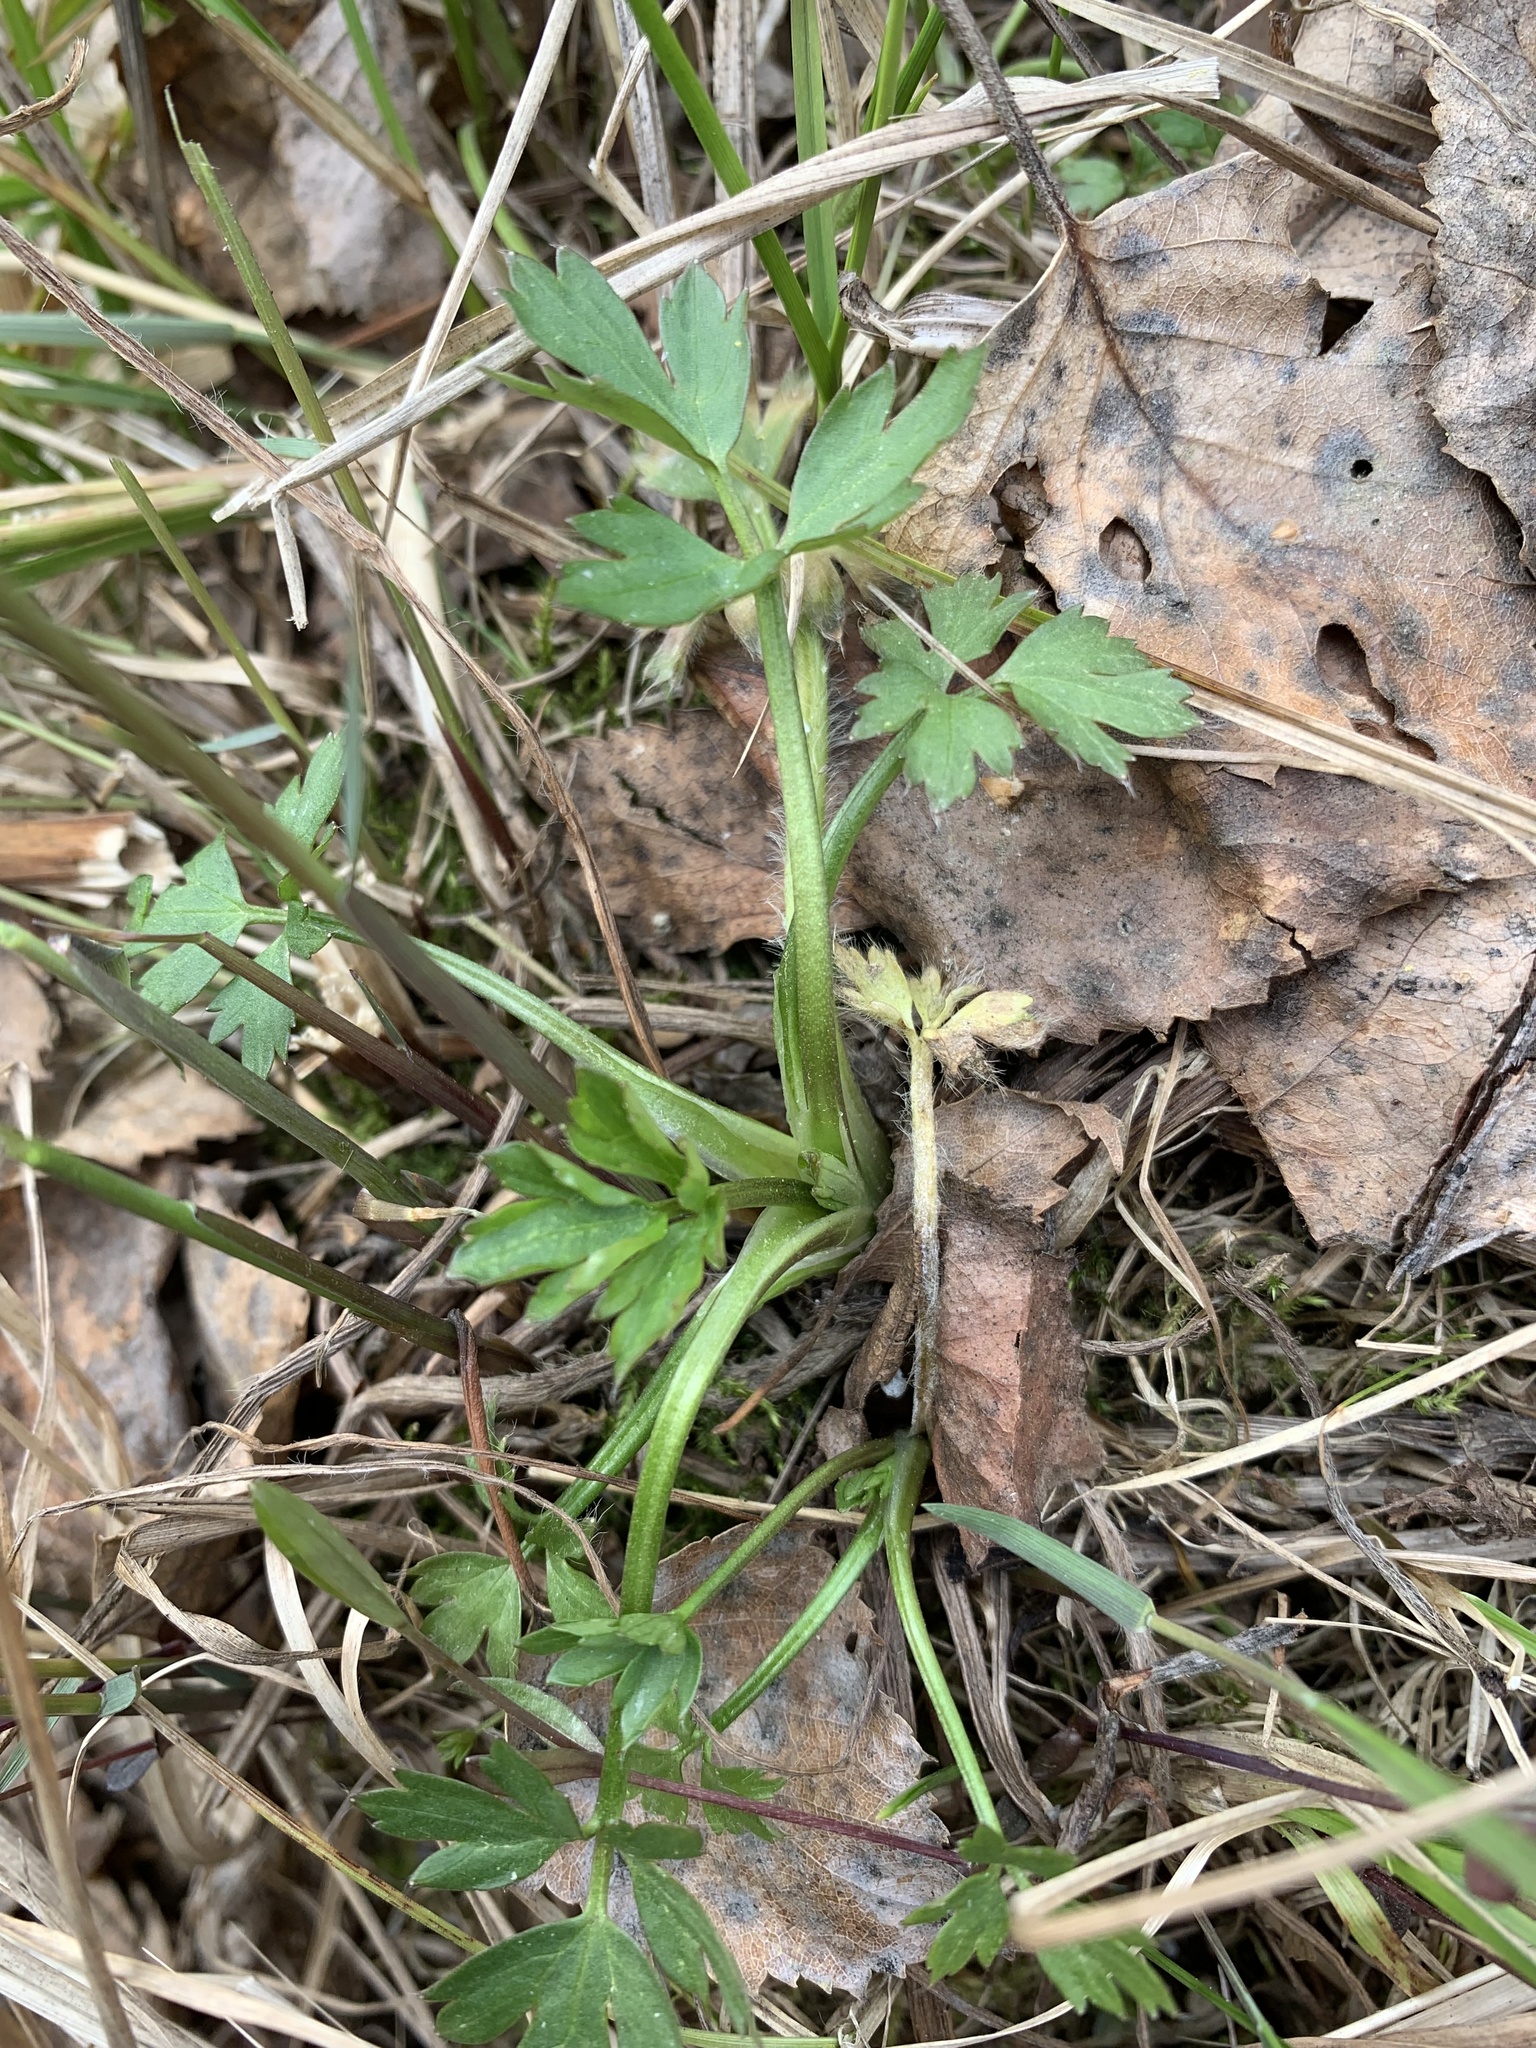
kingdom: Plantae
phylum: Tracheophyta
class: Magnoliopsida
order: Ranunculales
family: Ranunculaceae
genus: Ranunculus
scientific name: Ranunculus repens
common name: Creeping buttercup
